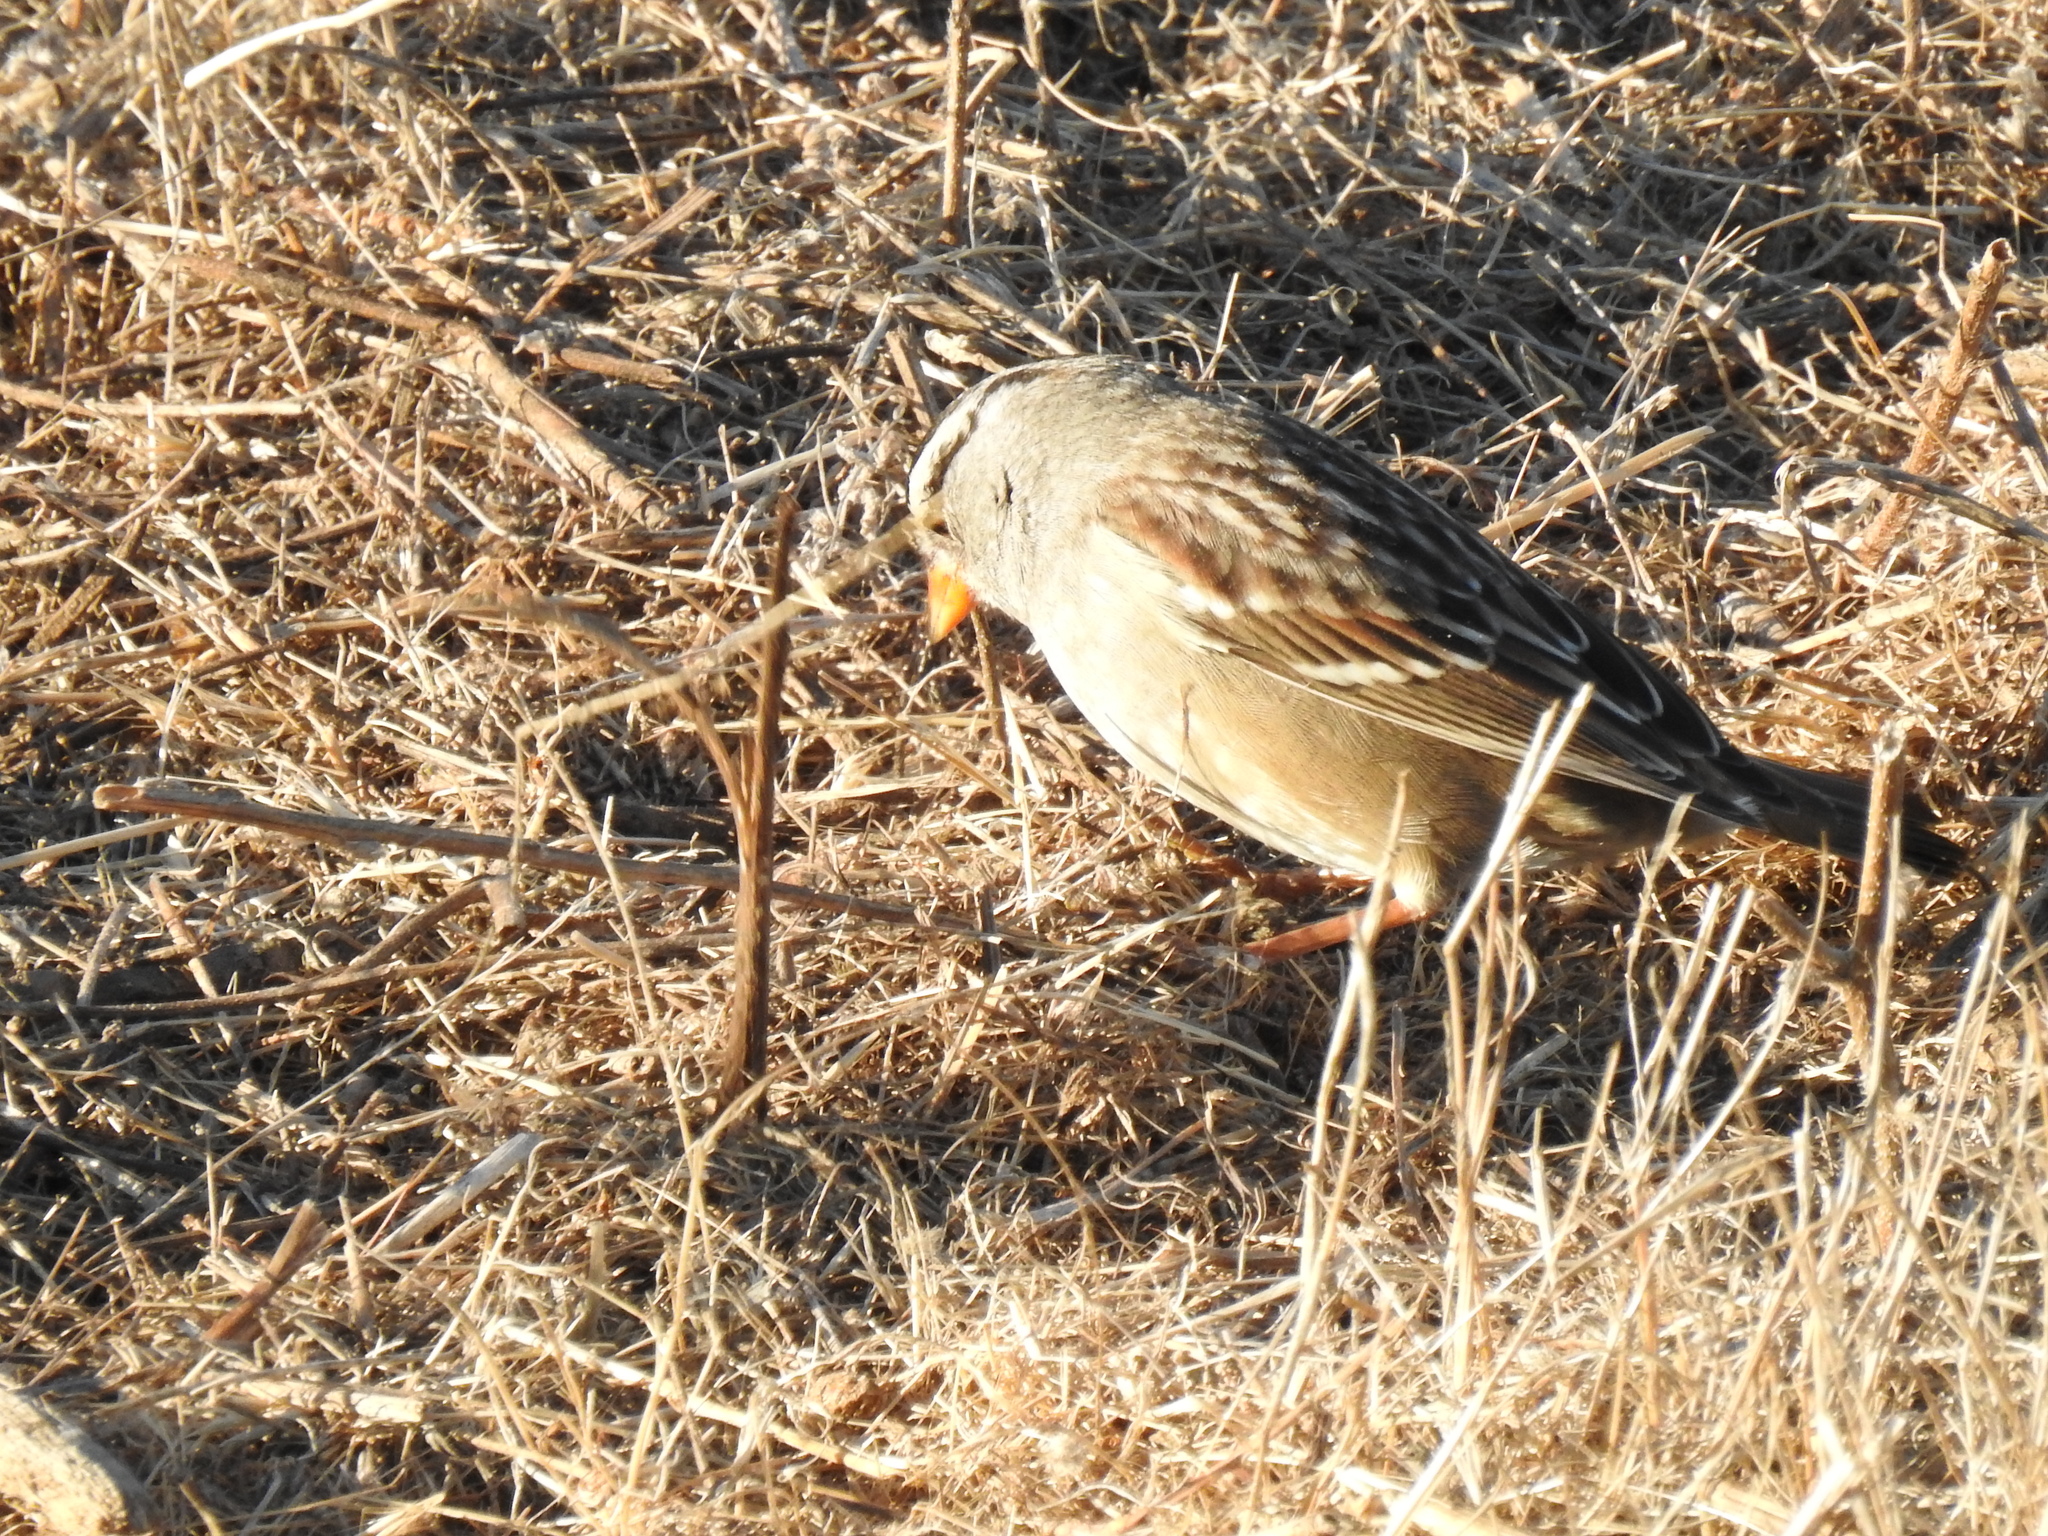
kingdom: Animalia
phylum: Chordata
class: Aves
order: Passeriformes
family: Passerellidae
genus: Zonotrichia
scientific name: Zonotrichia leucophrys
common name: White-crowned sparrow
